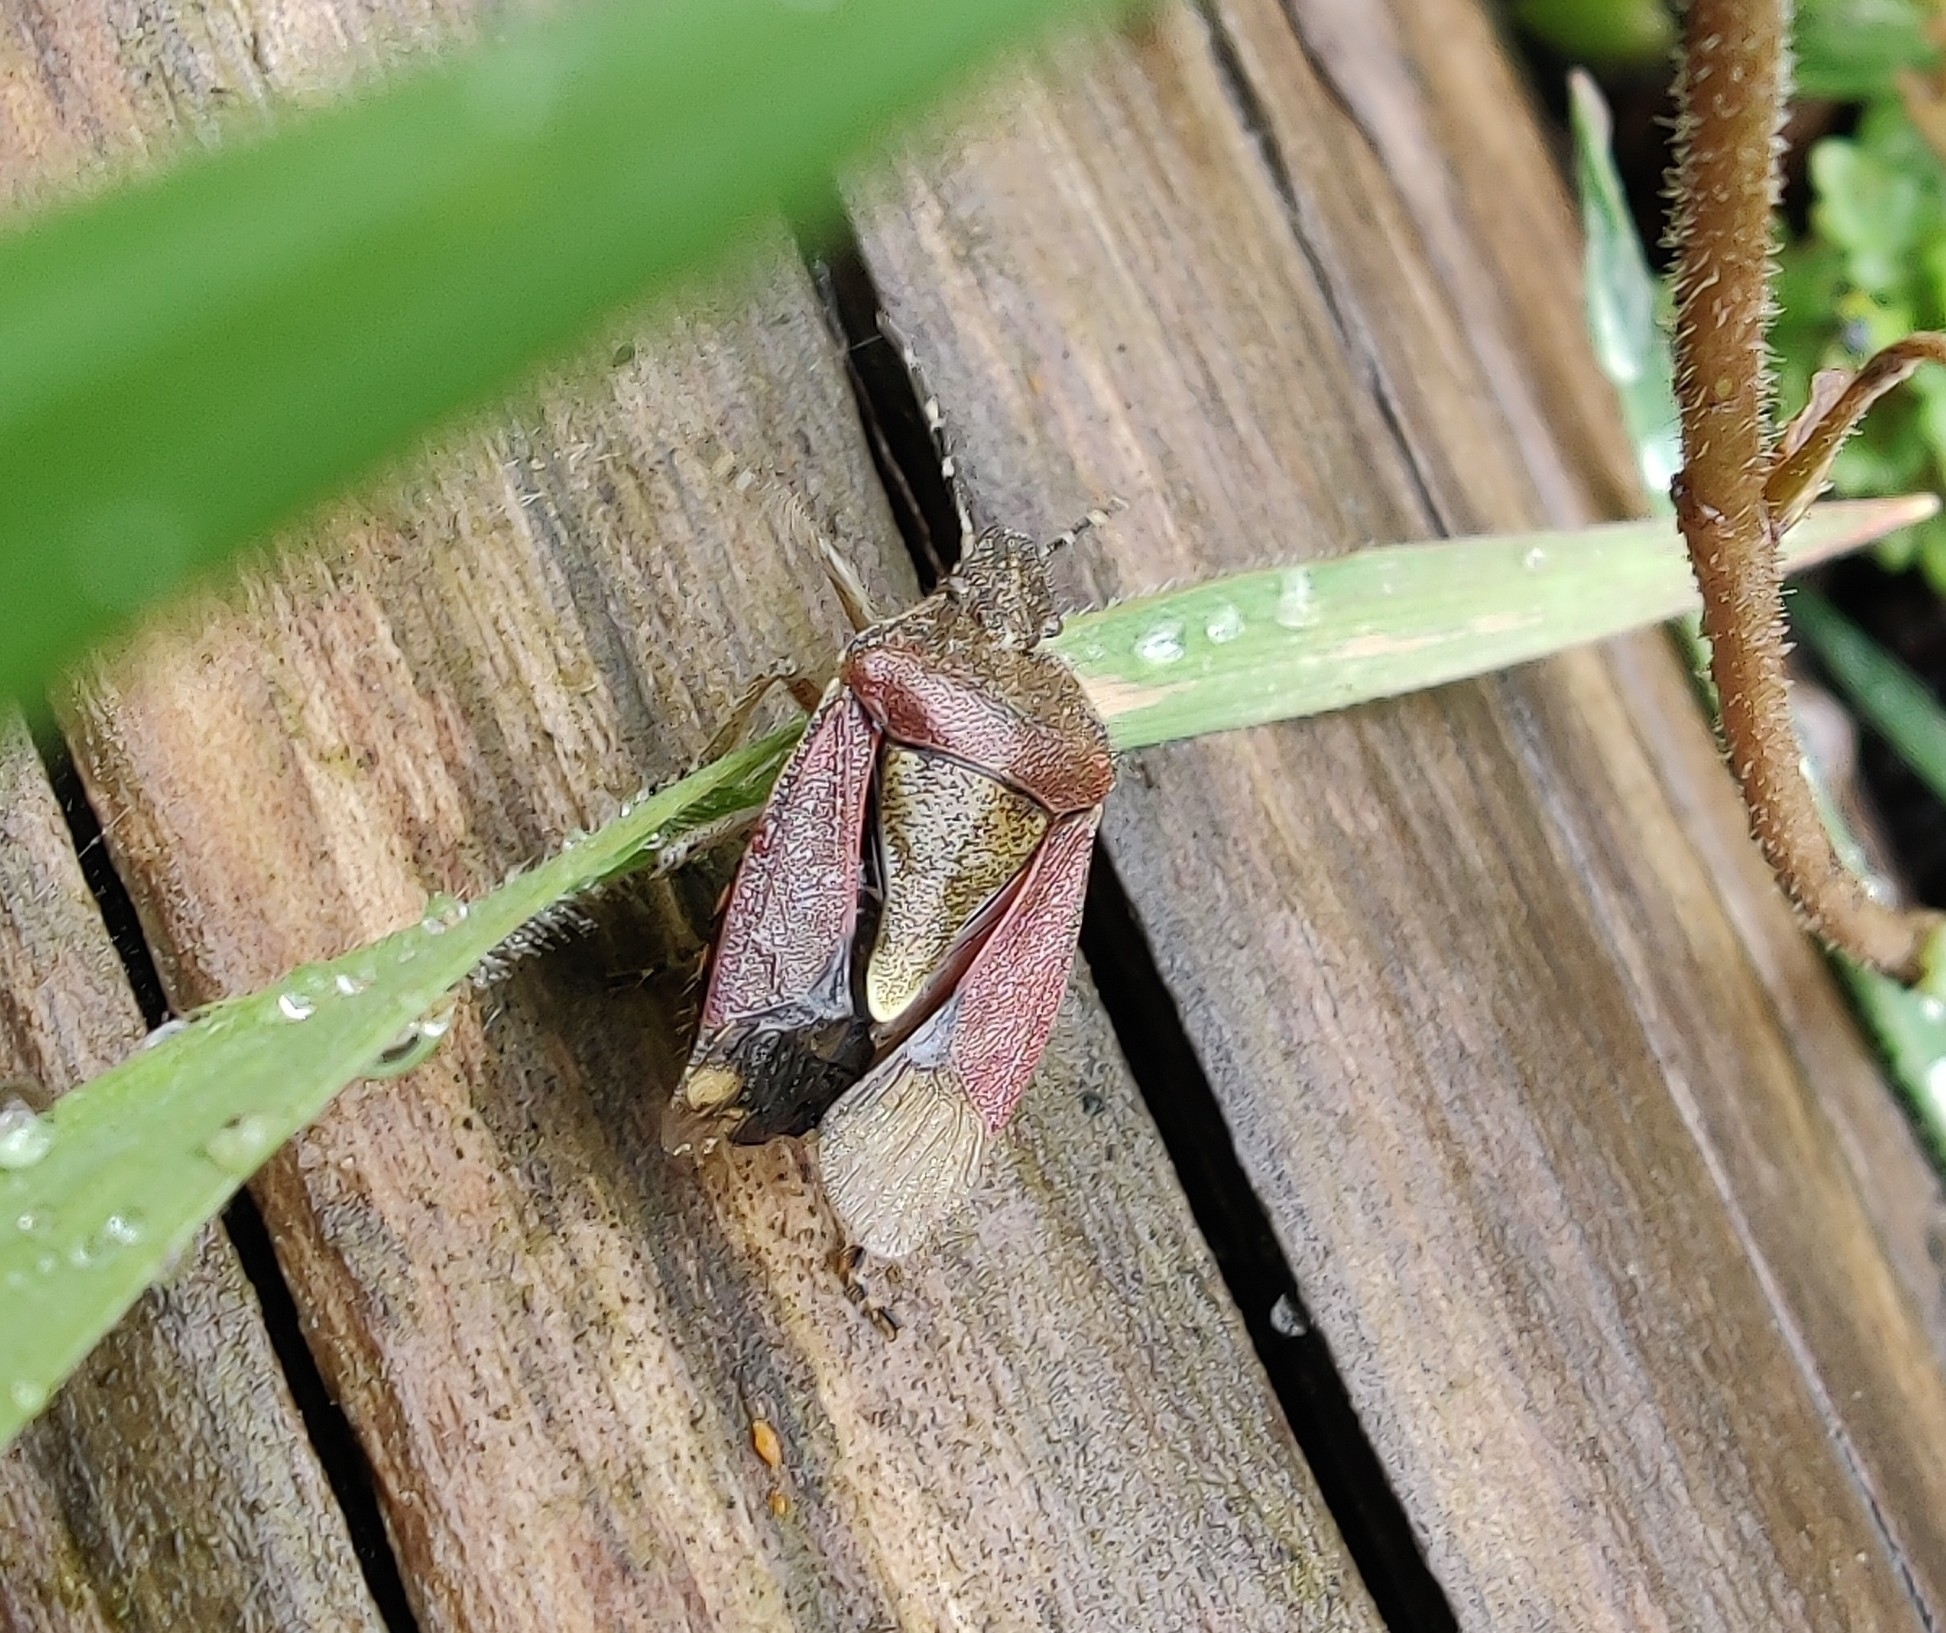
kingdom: Animalia
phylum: Arthropoda
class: Insecta
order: Hemiptera
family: Pentatomidae
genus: Dolycoris
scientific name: Dolycoris baccarum
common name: Sloe bug
